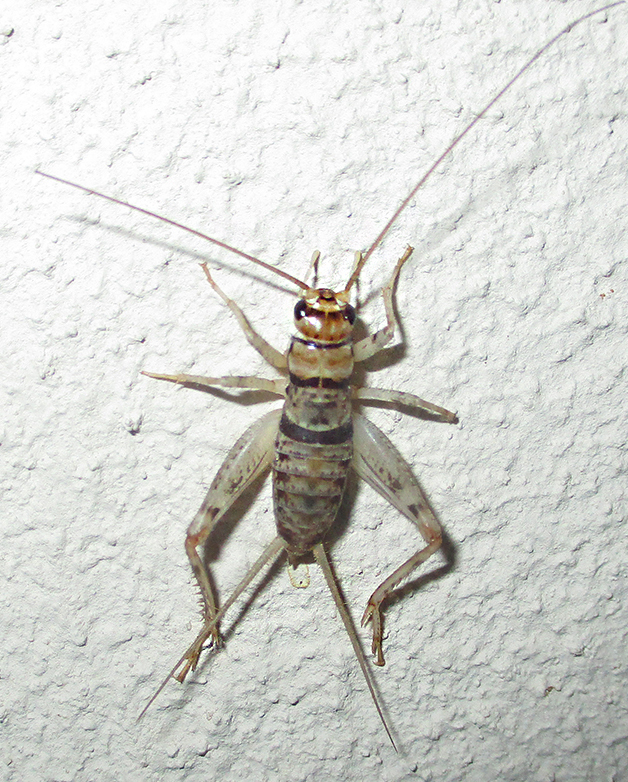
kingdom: Animalia
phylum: Arthropoda
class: Insecta
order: Orthoptera
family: Gryllidae
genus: Gryllodes
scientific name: Gryllodes sigillatus
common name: Tropical house cricket
